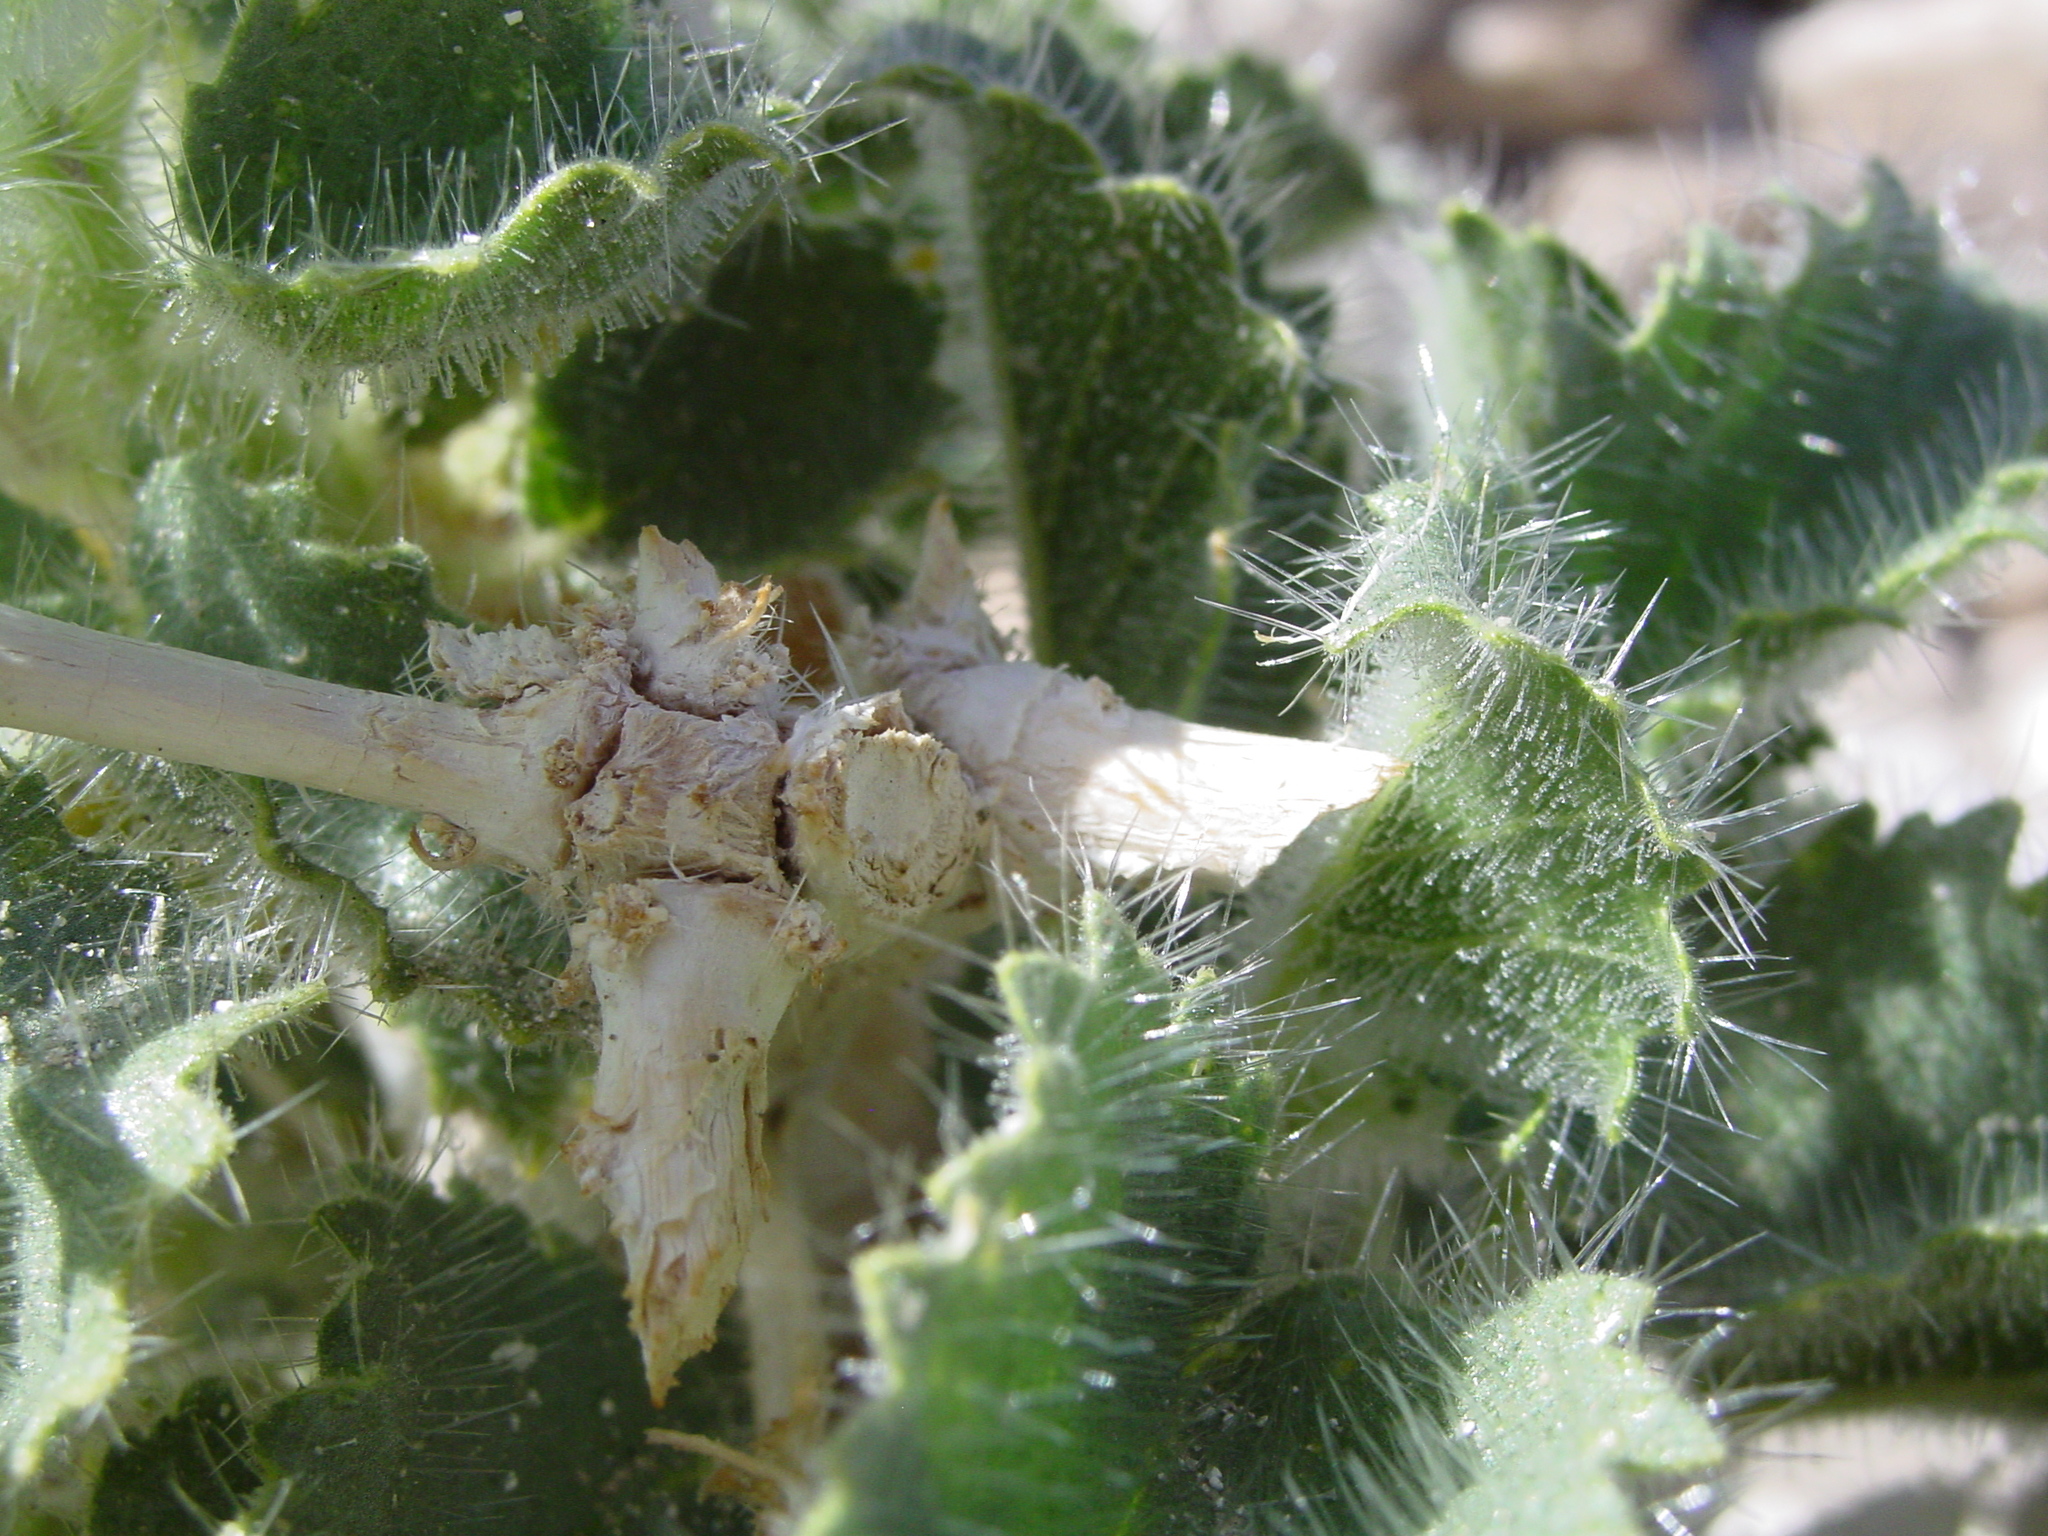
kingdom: Plantae
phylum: Tracheophyta
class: Magnoliopsida
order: Cornales
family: Loasaceae
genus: Eucnide
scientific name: Eucnide urens
